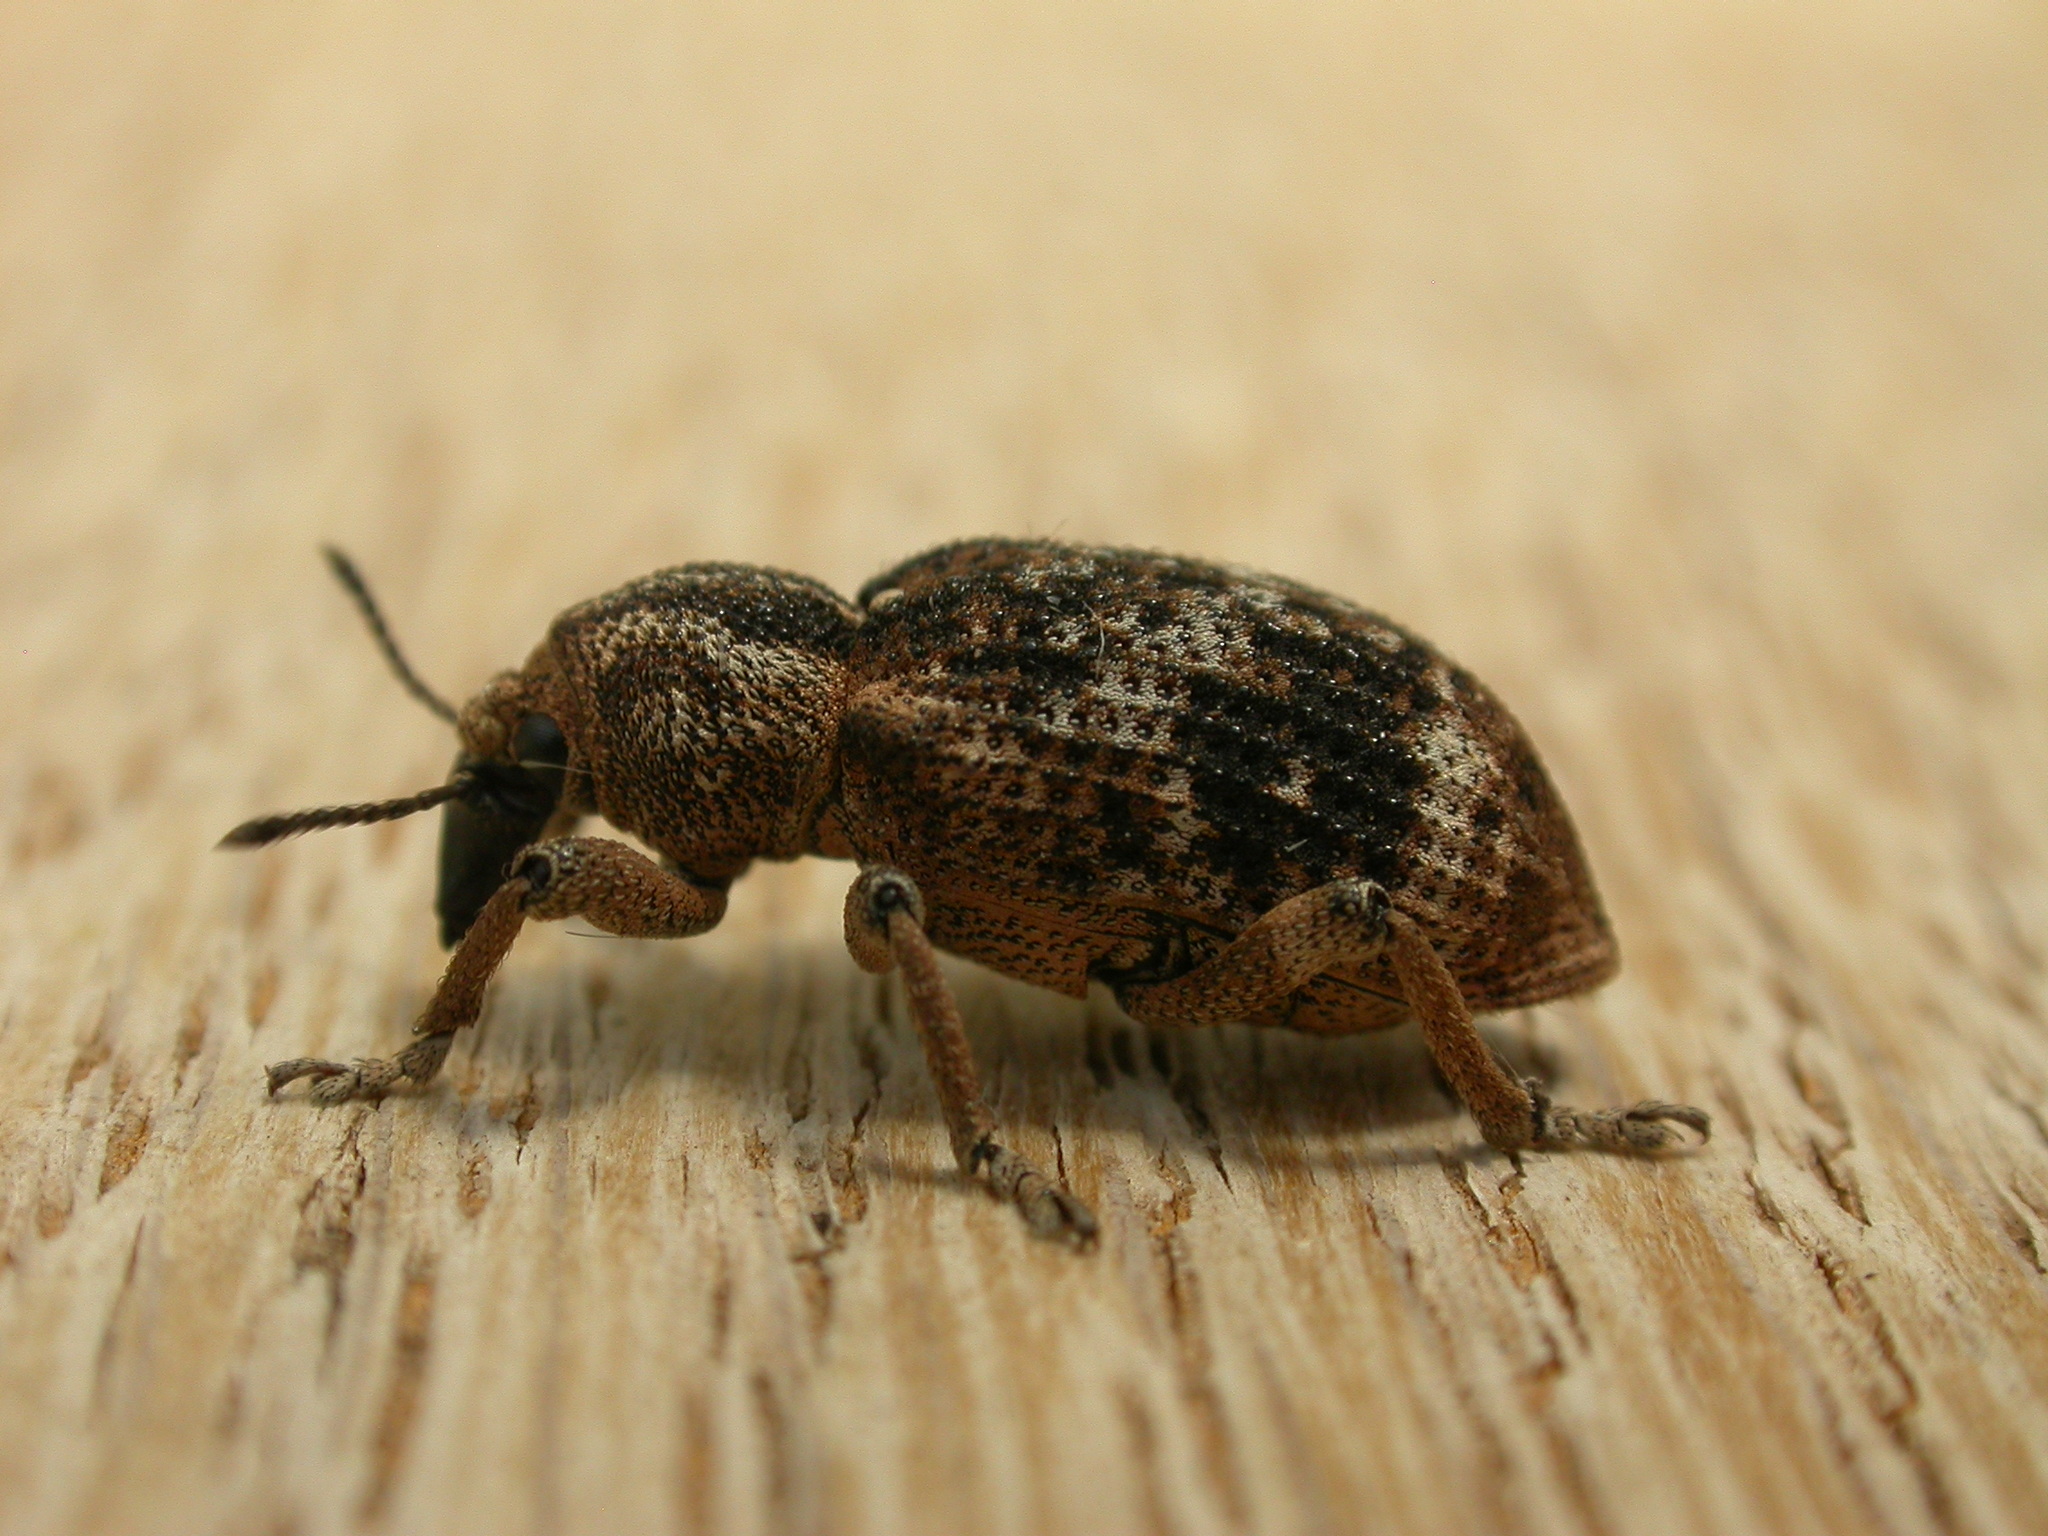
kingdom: Animalia
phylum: Arthropoda
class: Insecta
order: Coleoptera
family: Curculionidae
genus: Rhinaria
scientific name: Rhinaria convexirostris
